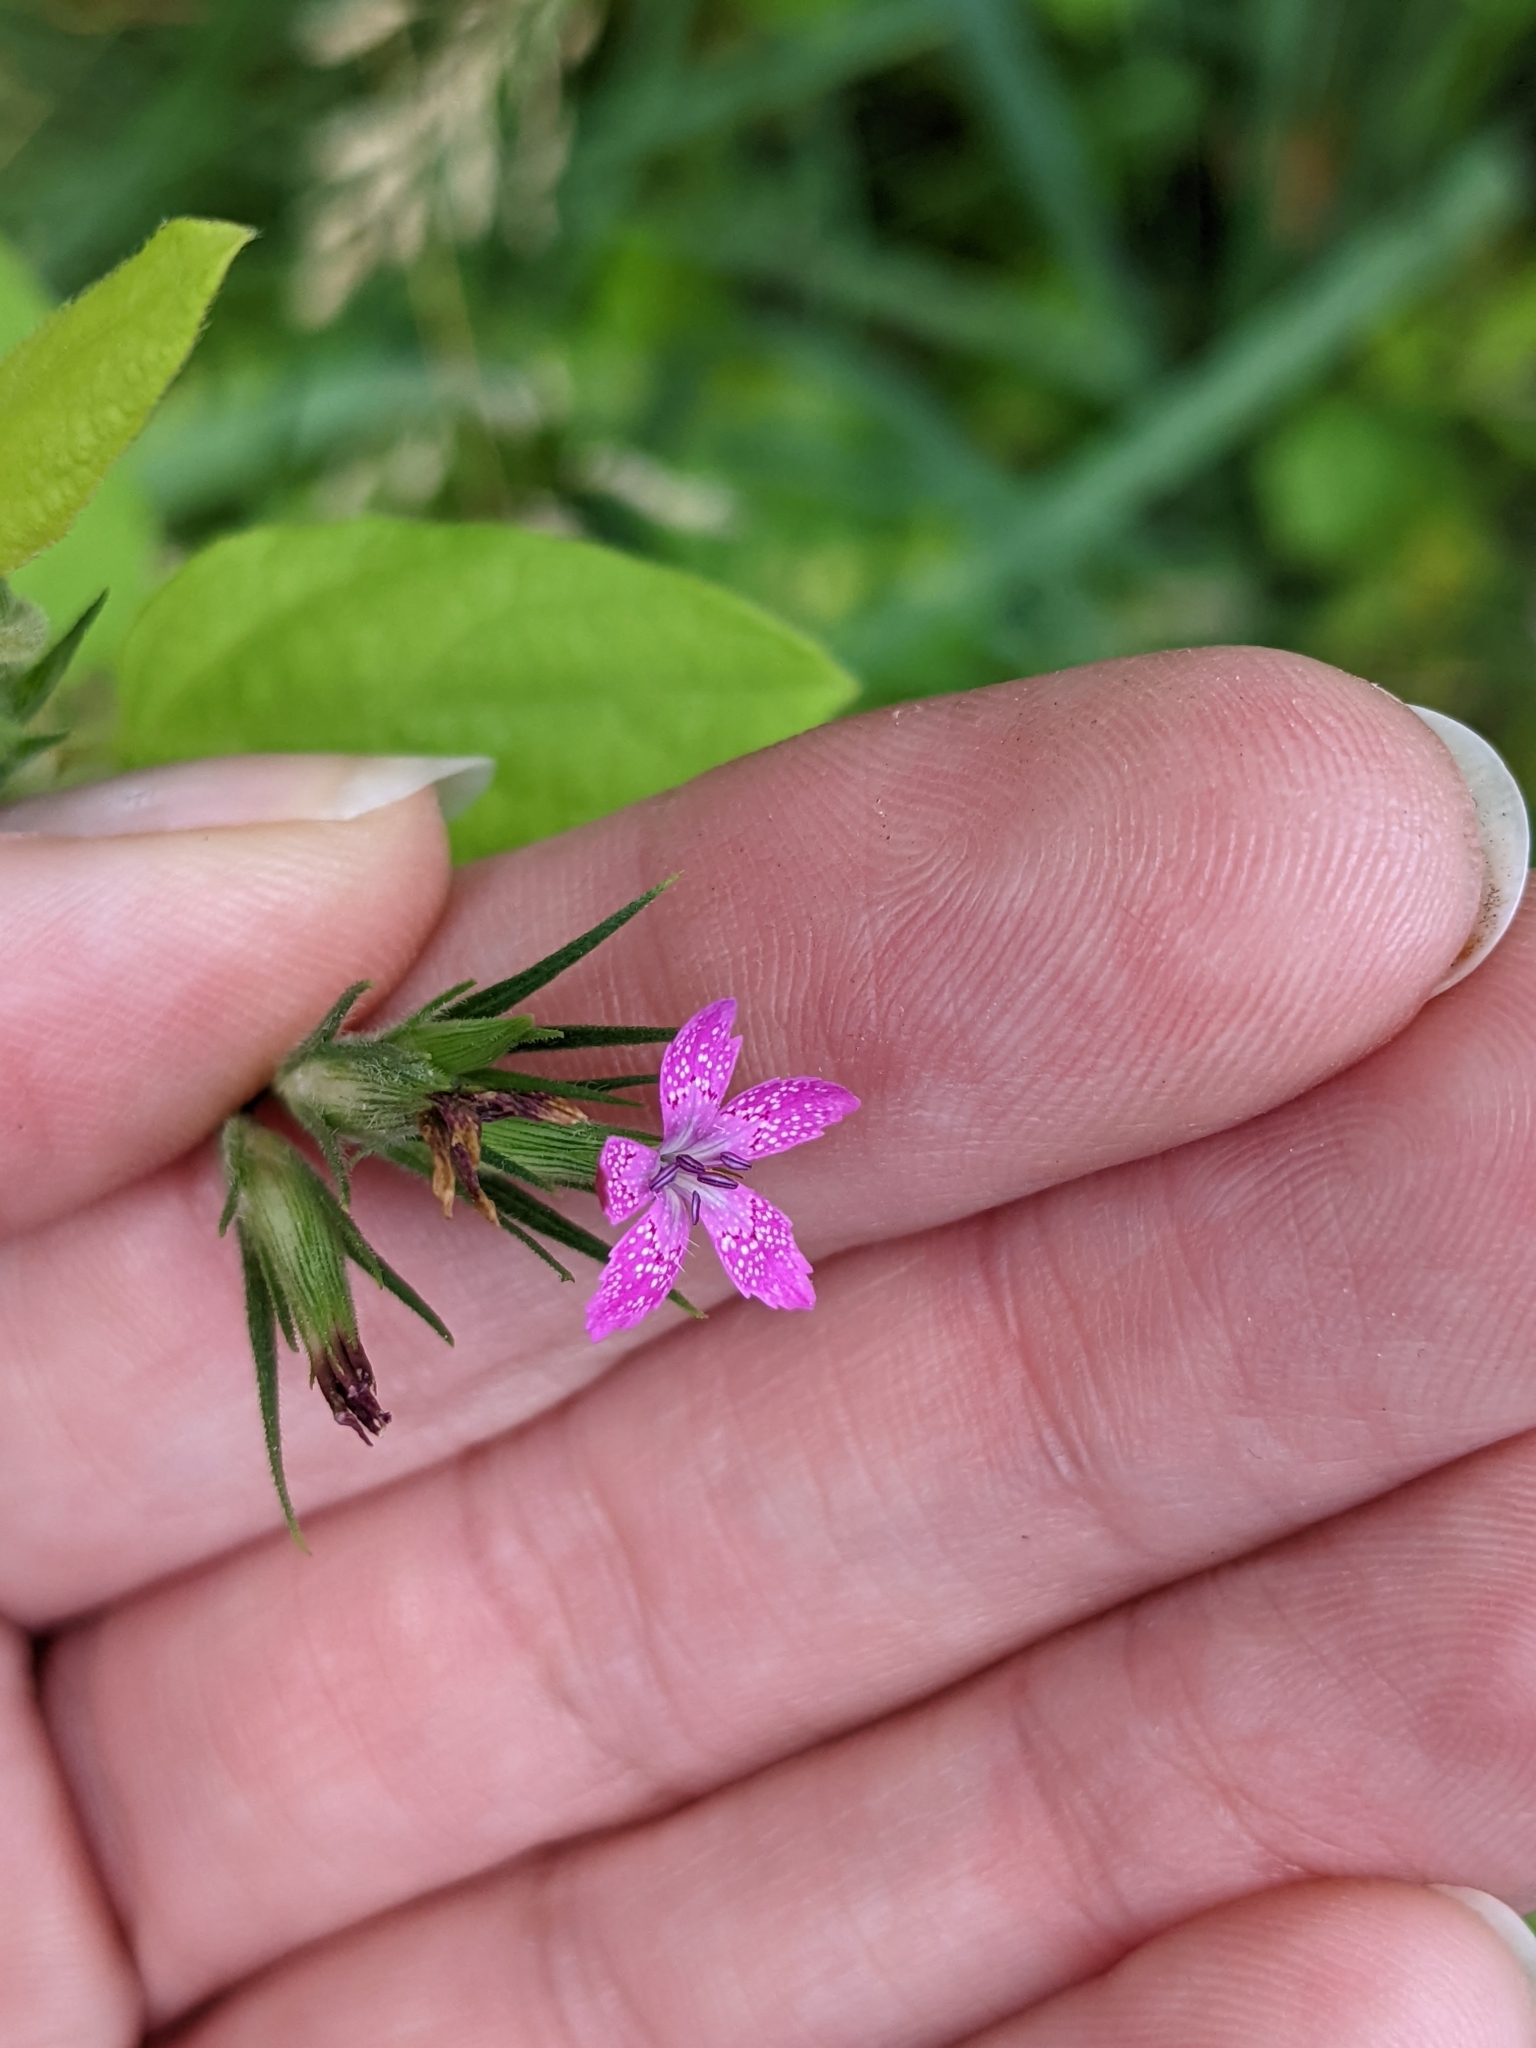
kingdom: Plantae
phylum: Tracheophyta
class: Magnoliopsida
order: Caryophyllales
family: Caryophyllaceae
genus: Dianthus
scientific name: Dianthus armeria
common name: Deptford pink
